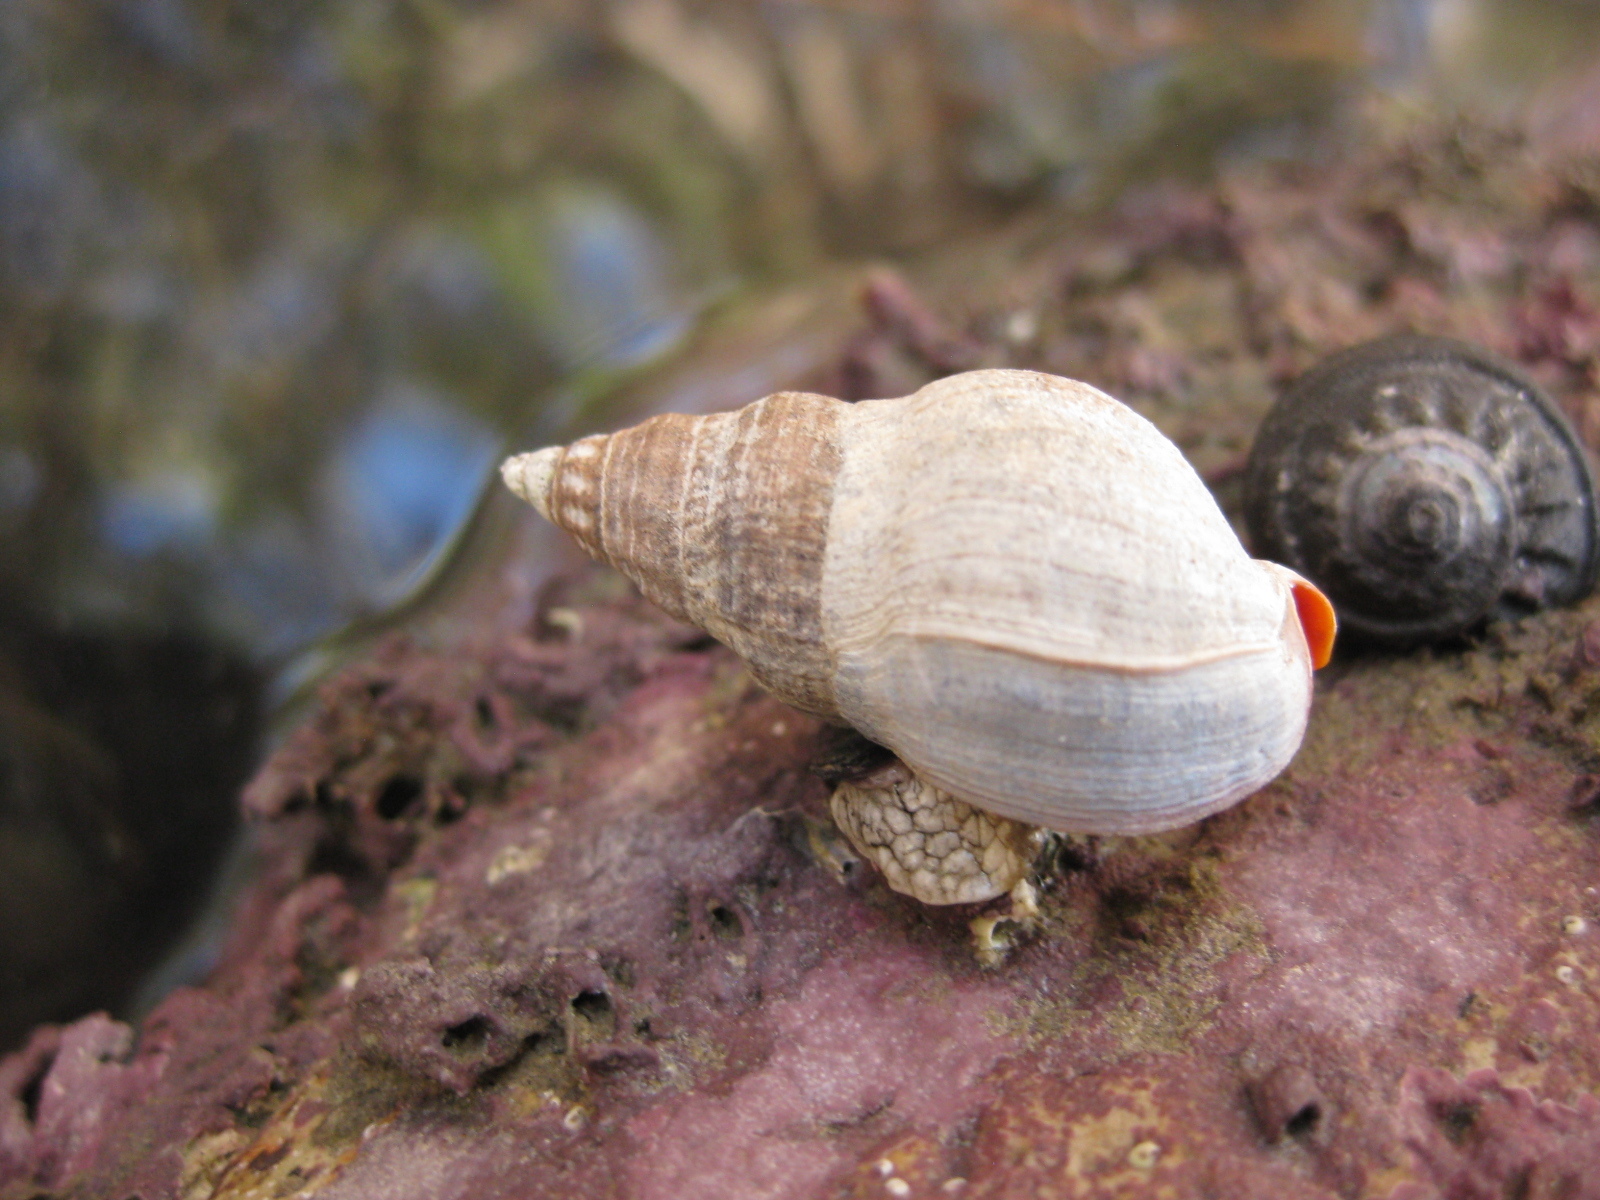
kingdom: Animalia
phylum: Mollusca
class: Gastropoda
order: Neogastropoda
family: Cominellidae
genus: Cominella
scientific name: Cominella virgata
